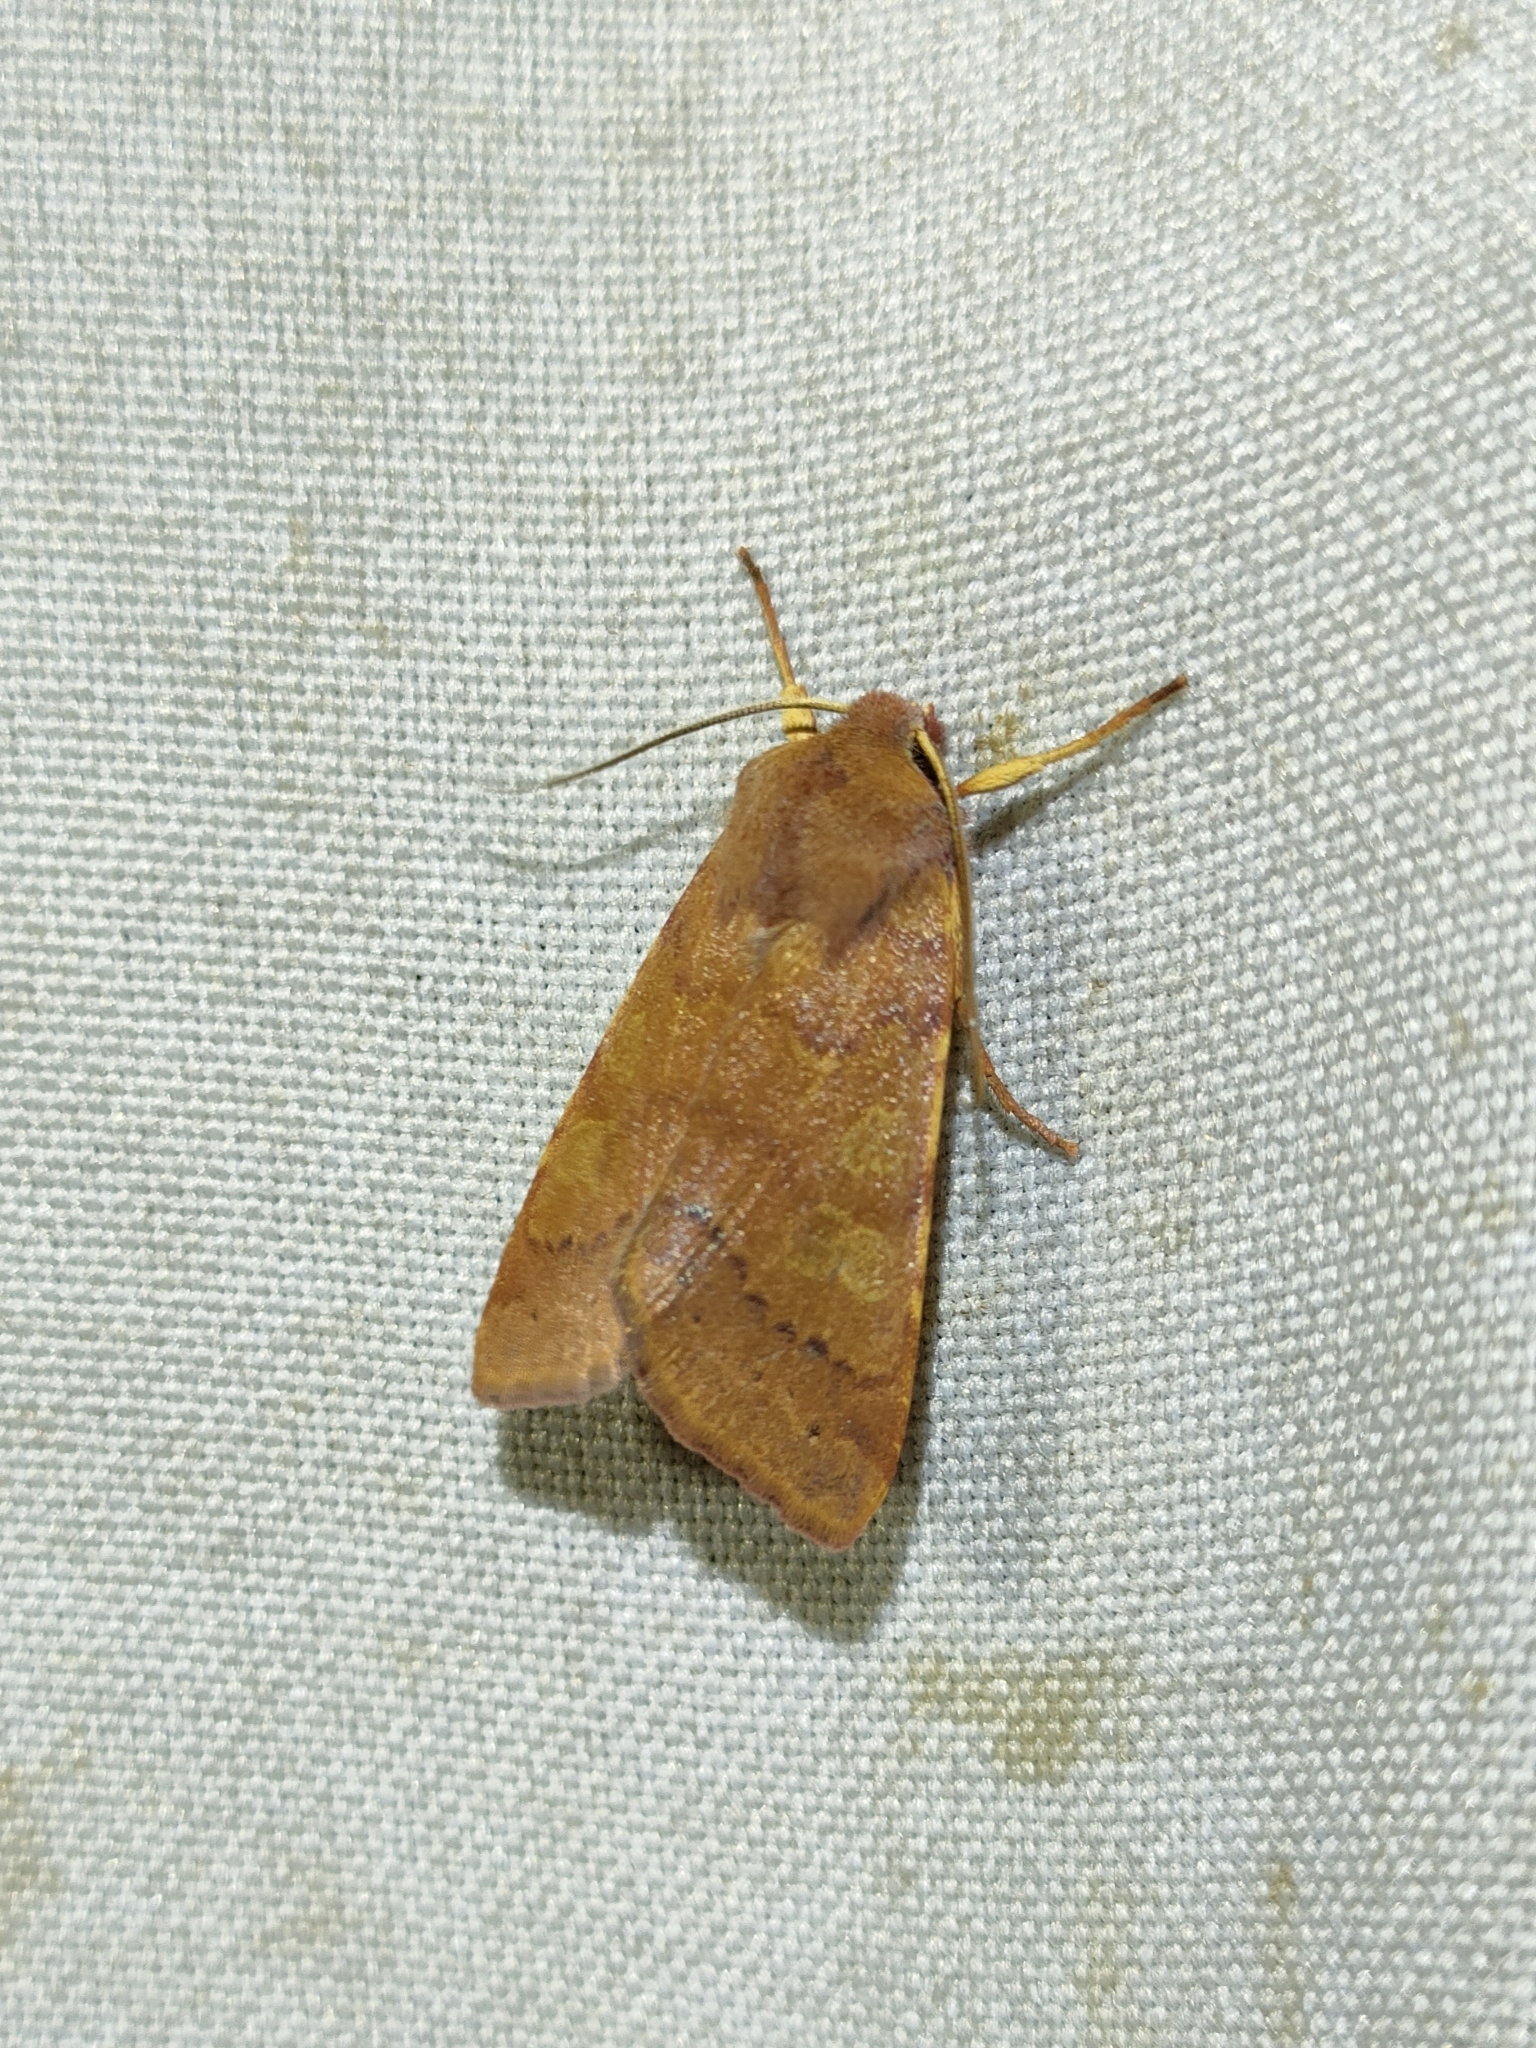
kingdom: Animalia
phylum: Arthropoda
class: Insecta
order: Lepidoptera
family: Noctuidae
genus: Agrochola
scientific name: Agrochola helvola
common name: Flounced chestnut
